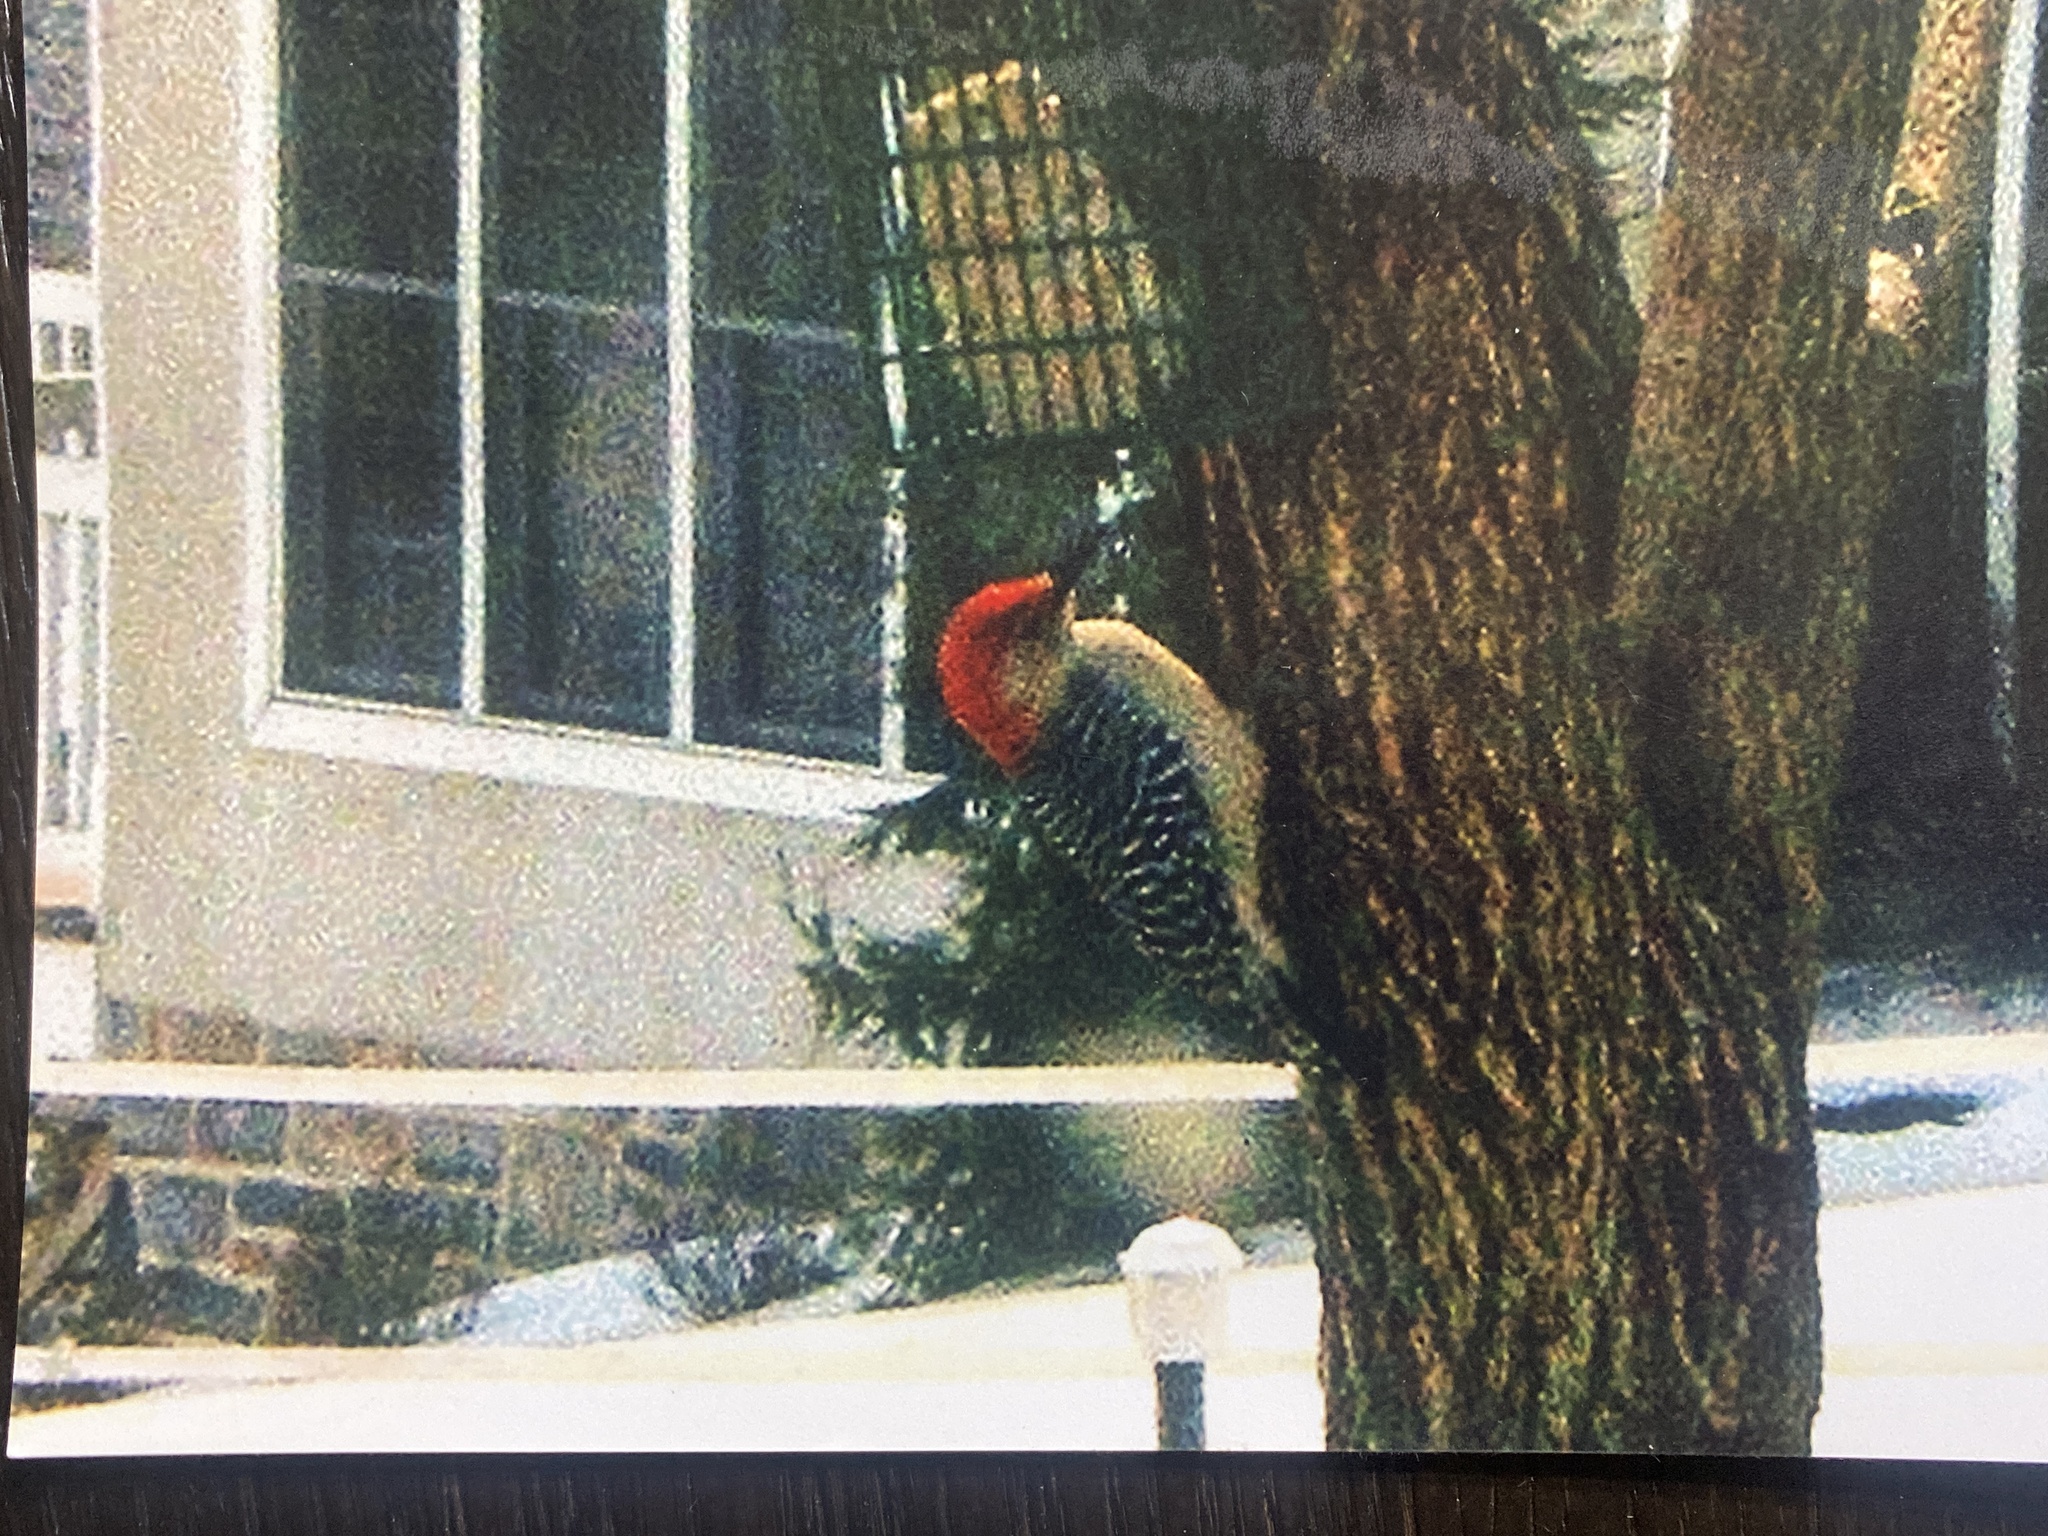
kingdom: Animalia
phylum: Chordata
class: Aves
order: Piciformes
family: Picidae
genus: Melanerpes
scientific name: Melanerpes carolinus
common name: Red-bellied woodpecker
